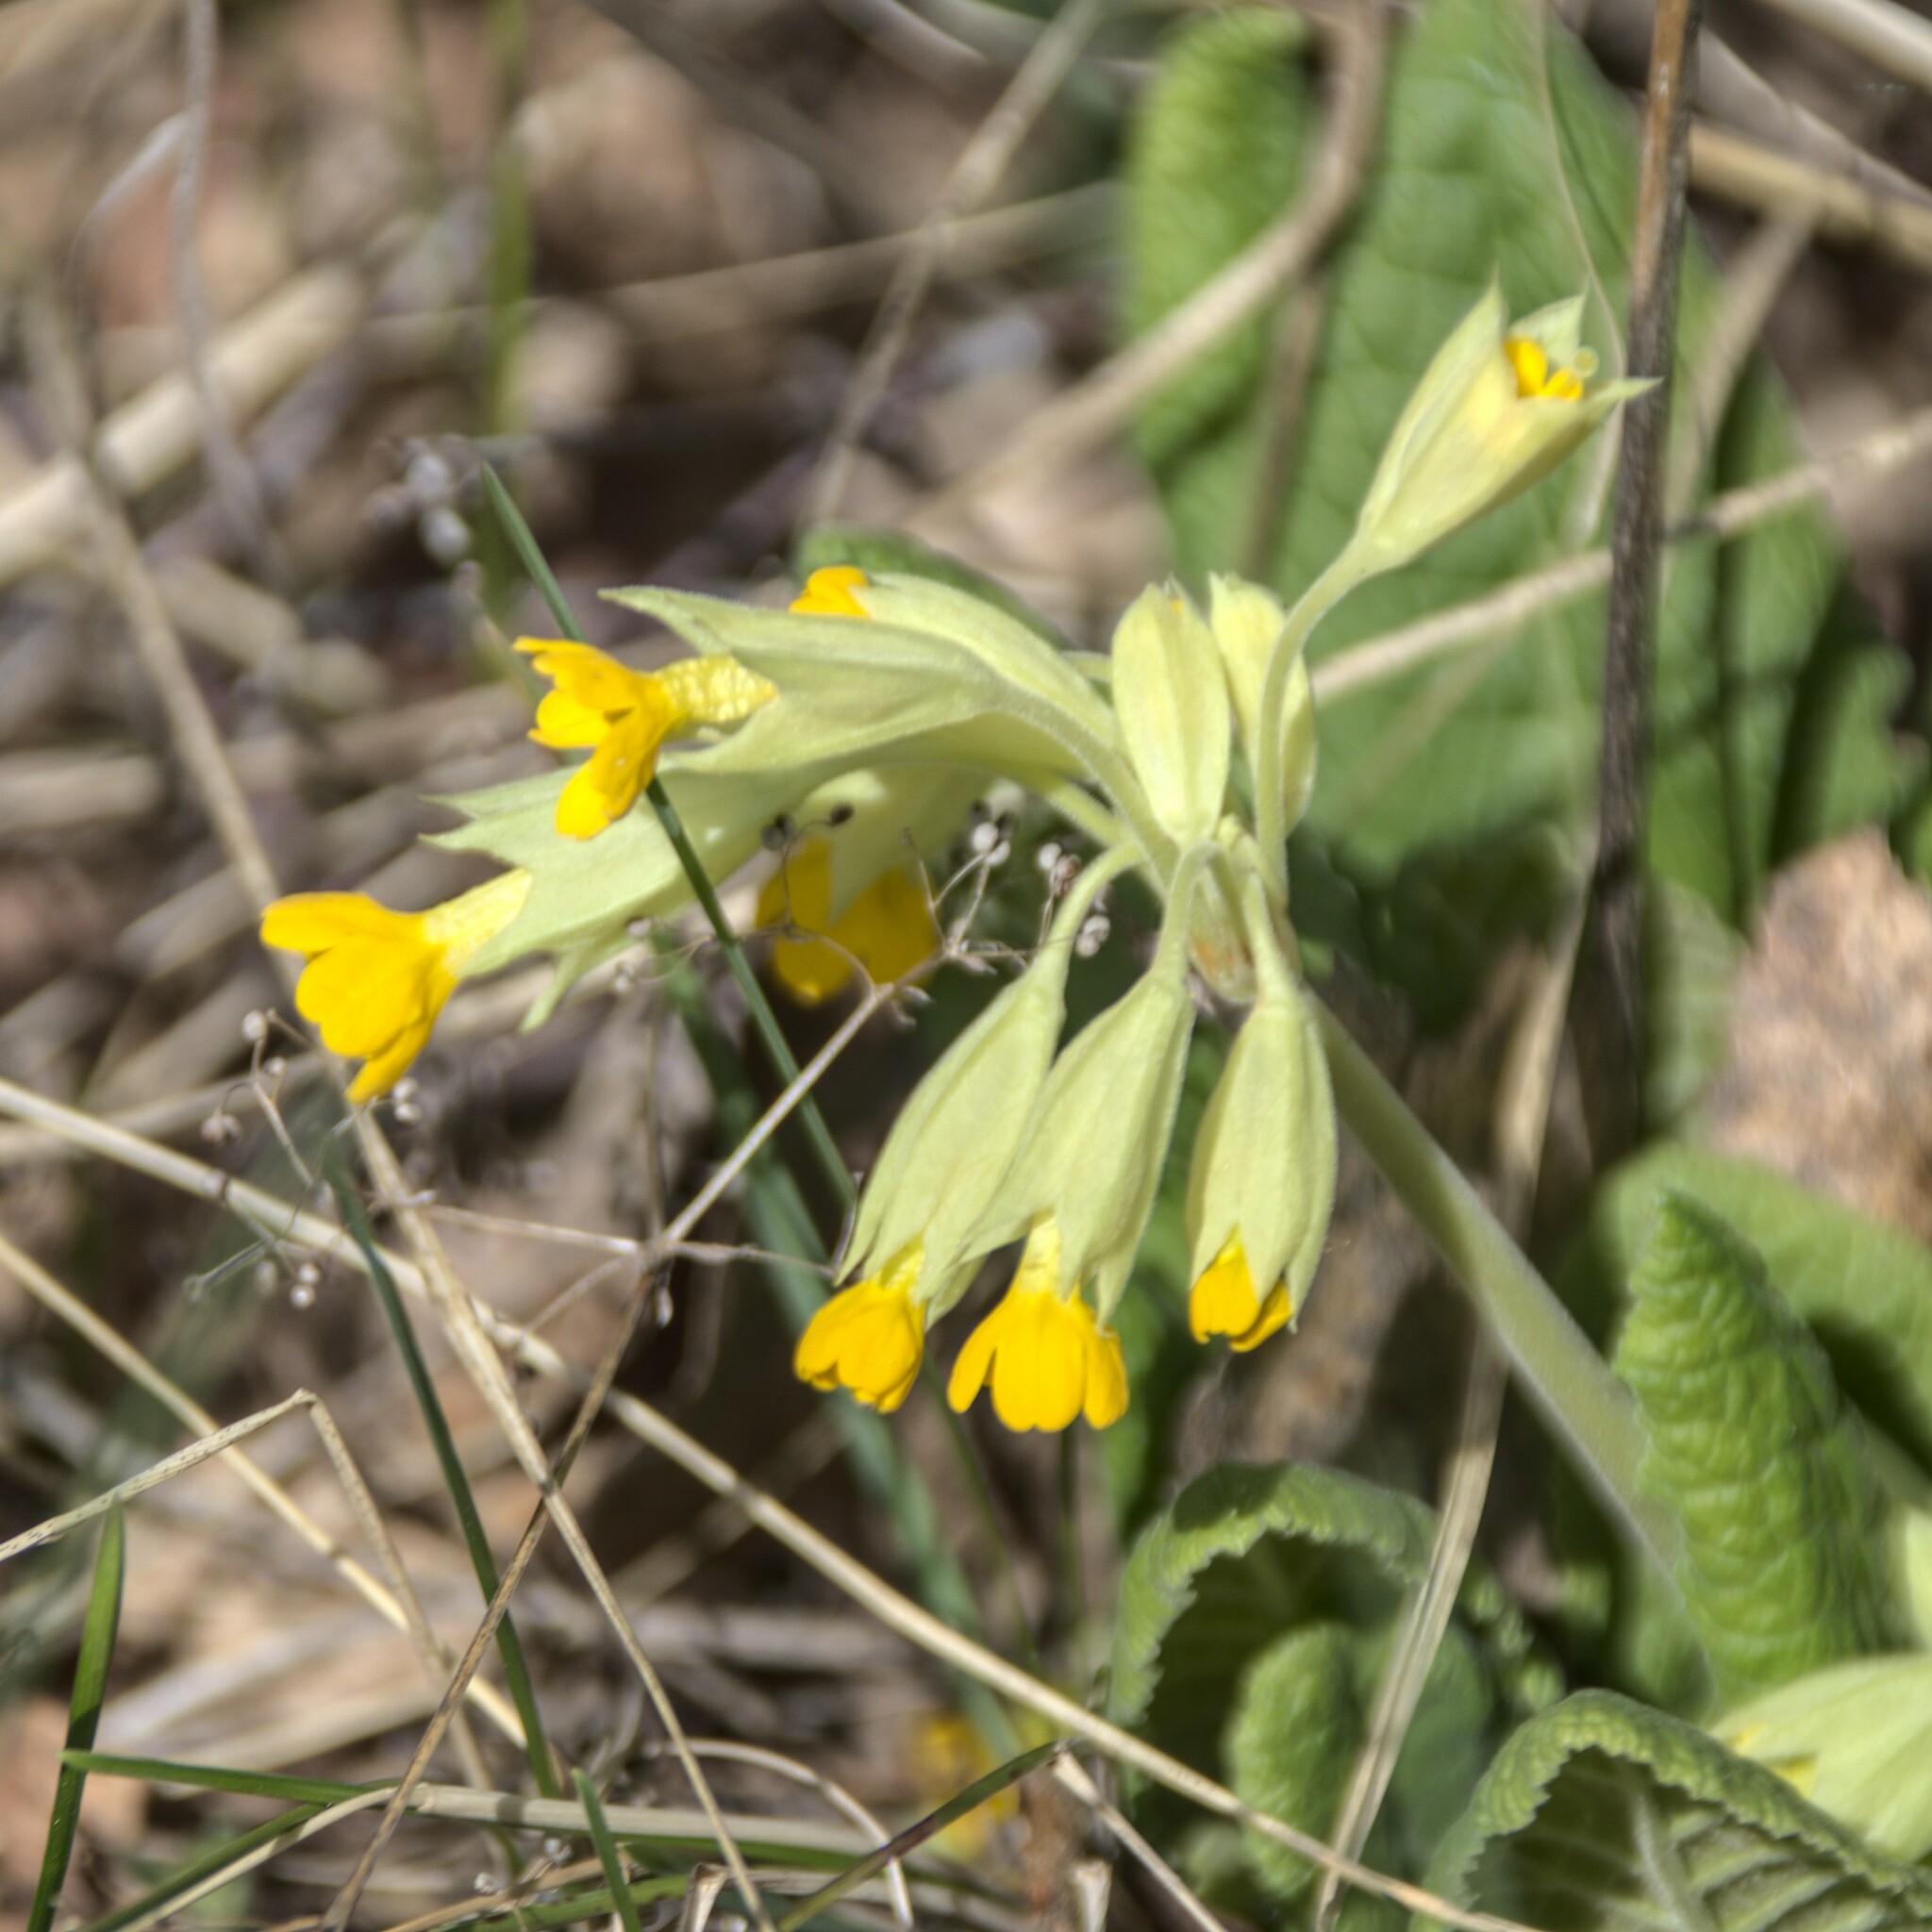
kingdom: Plantae
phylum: Tracheophyta
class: Magnoliopsida
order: Ericales
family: Primulaceae
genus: Primula
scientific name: Primula veris
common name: Cowslip
